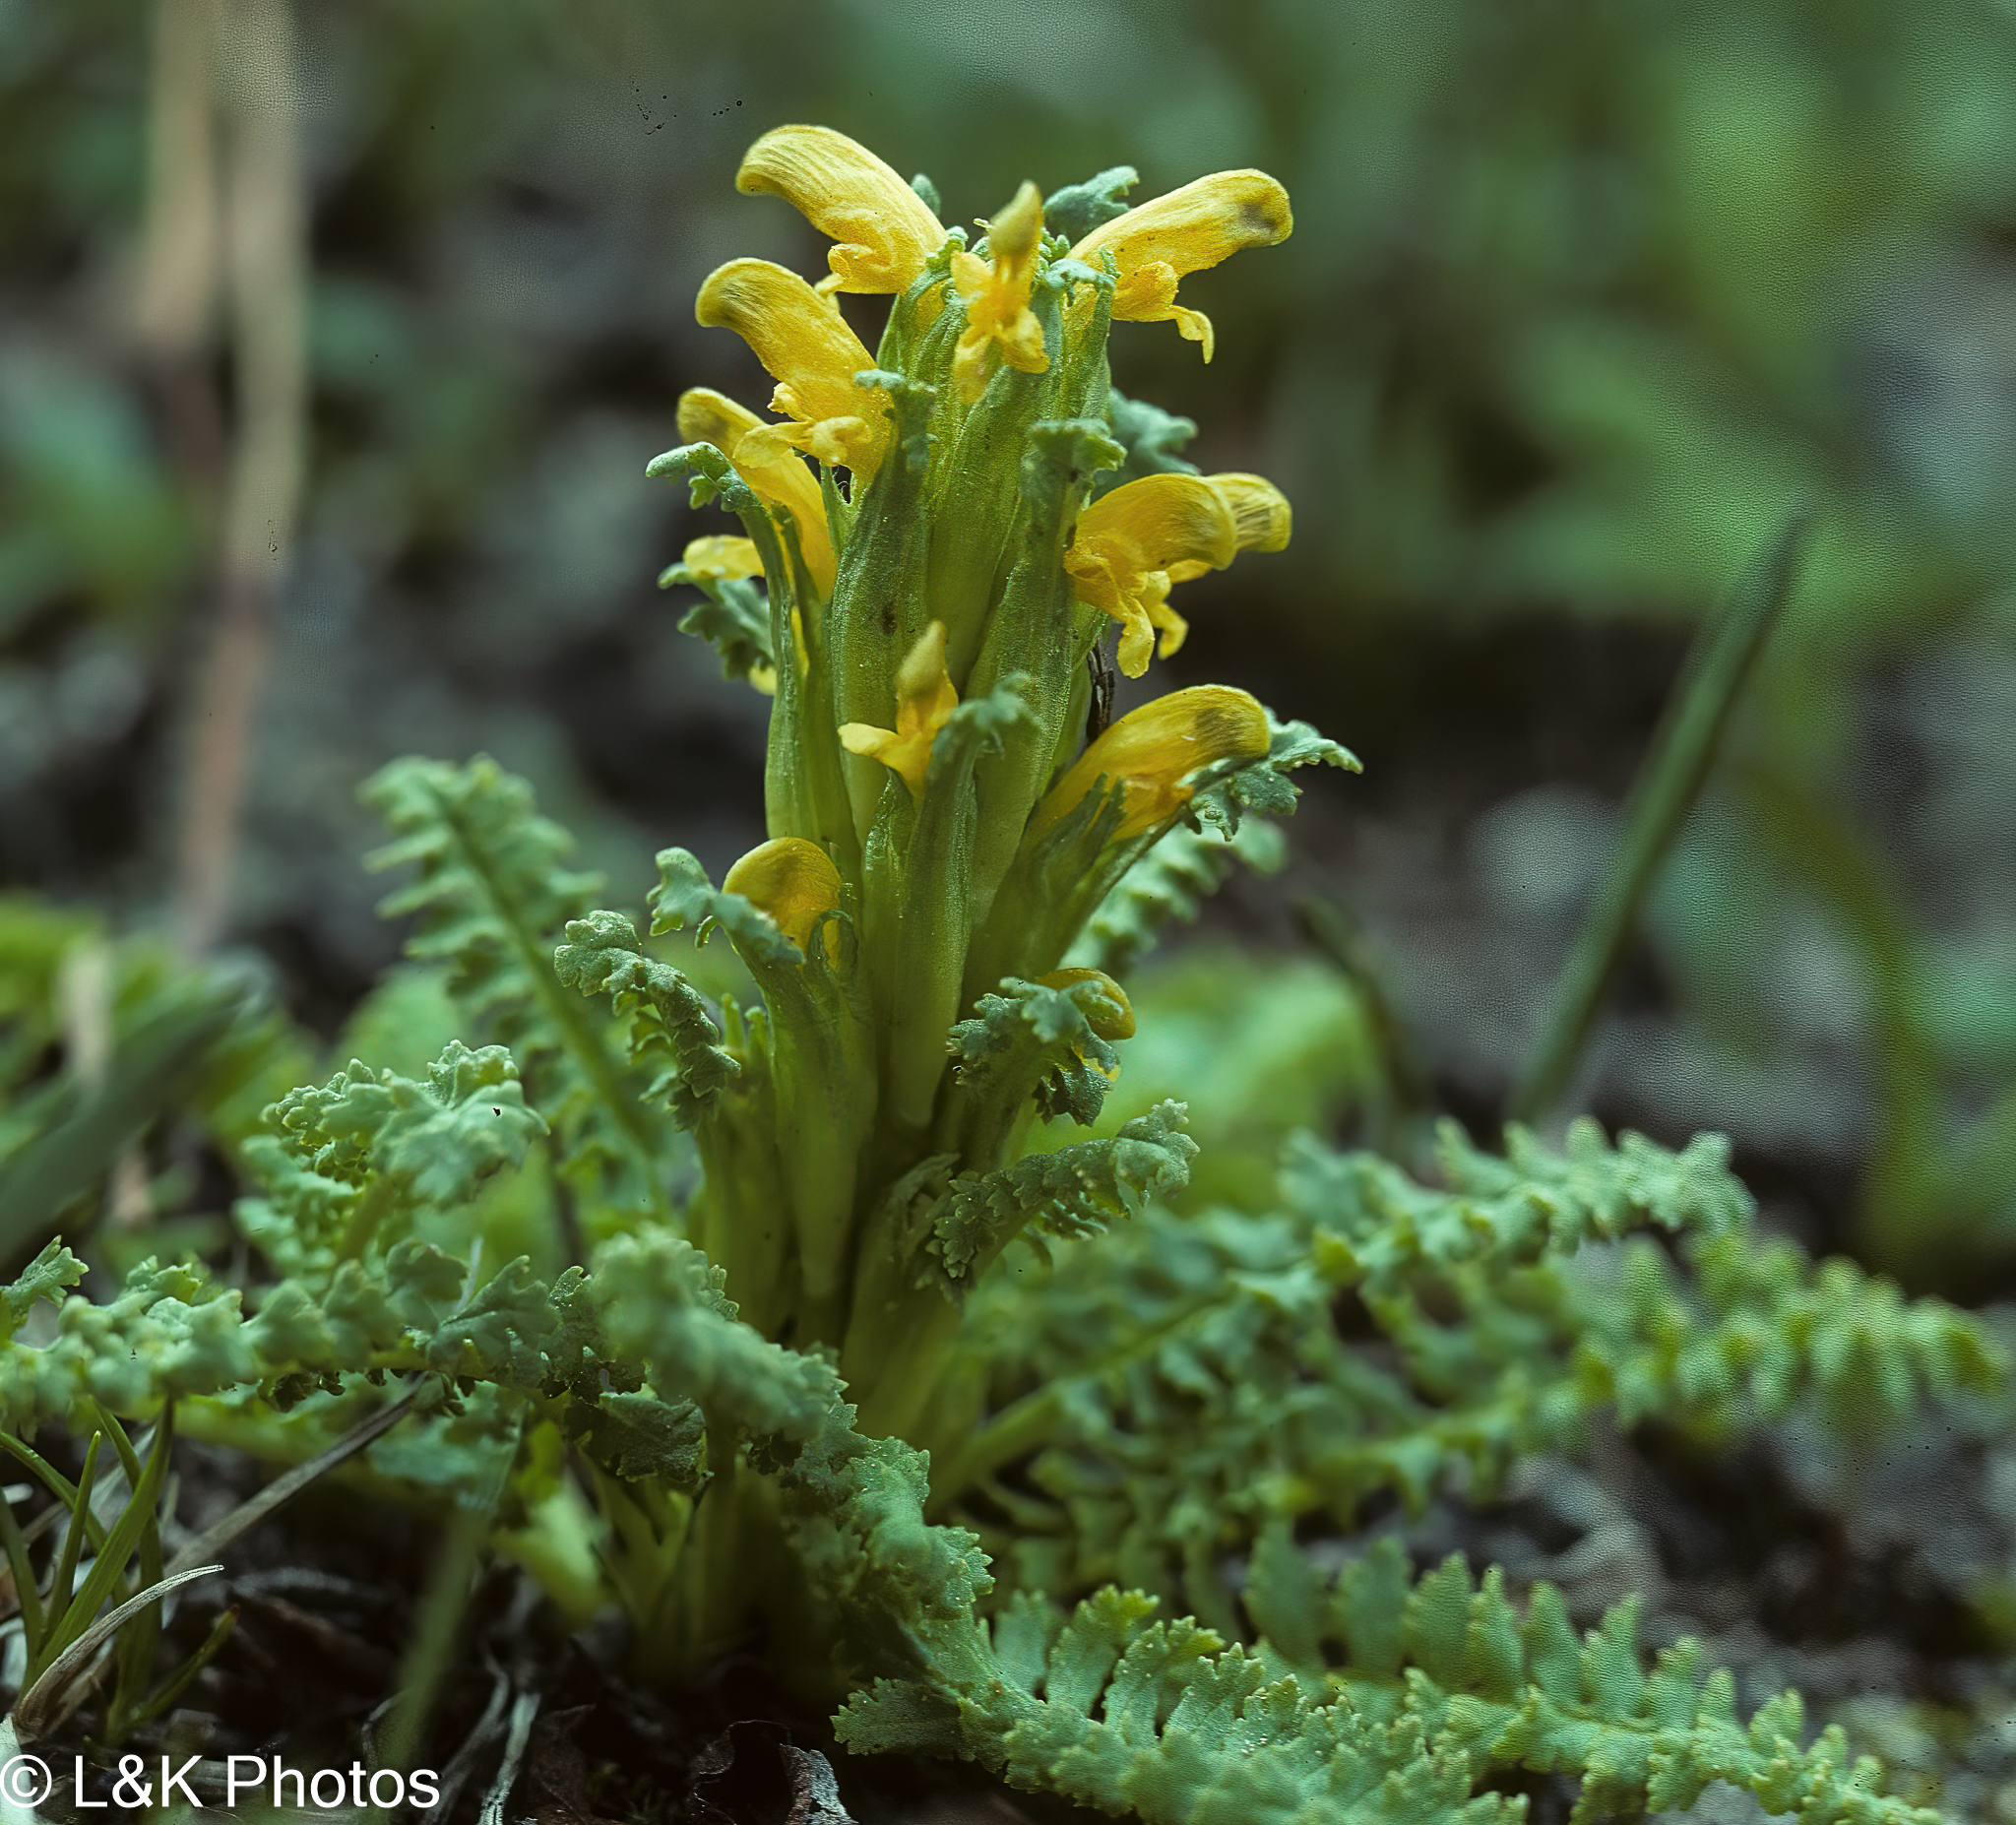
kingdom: Plantae
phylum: Tracheophyta
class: Magnoliopsida
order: Lamiales
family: Orobanchaceae
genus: Pedicularis
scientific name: Pedicularis flammea
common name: Flame-coloured lousewort
